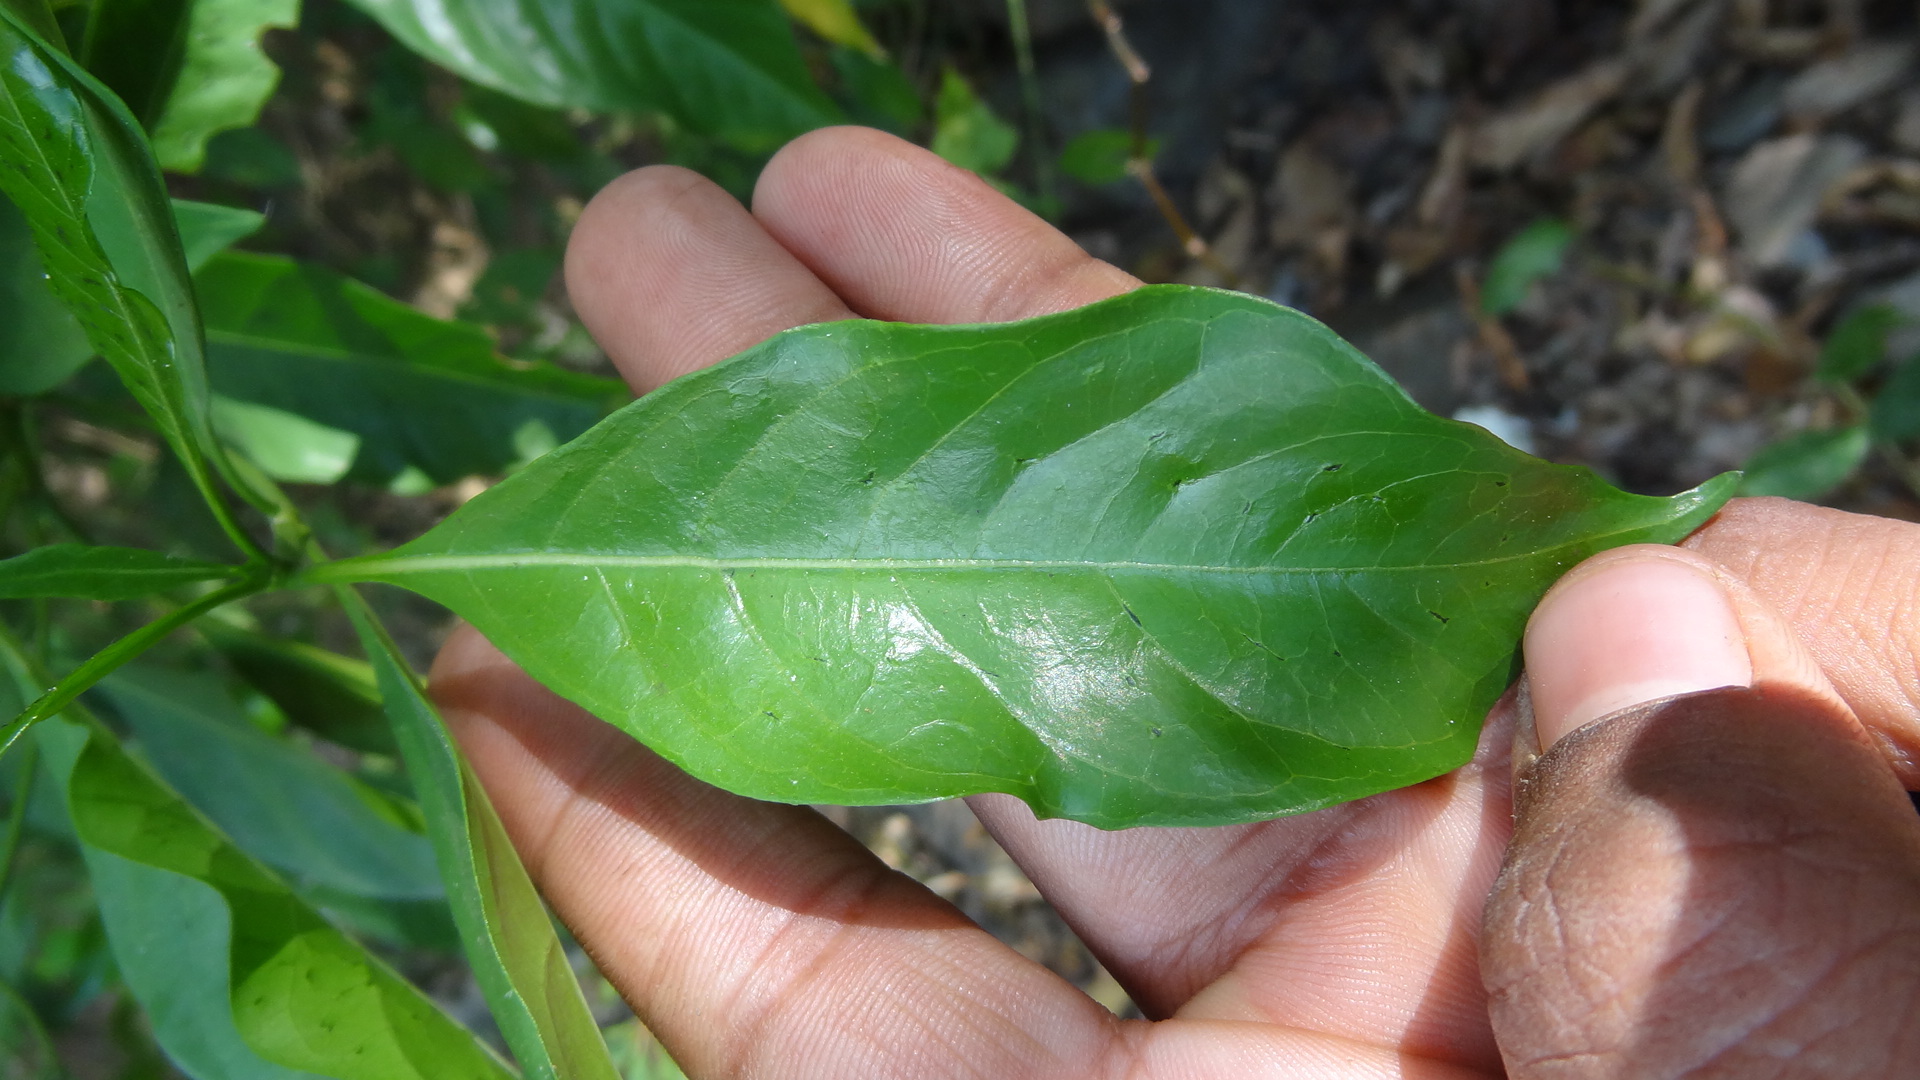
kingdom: Plantae
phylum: Tracheophyta
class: Magnoliopsida
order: Gentianales
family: Rubiaceae
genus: Pavetta
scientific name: Pavetta indica
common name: Indian pavetta
